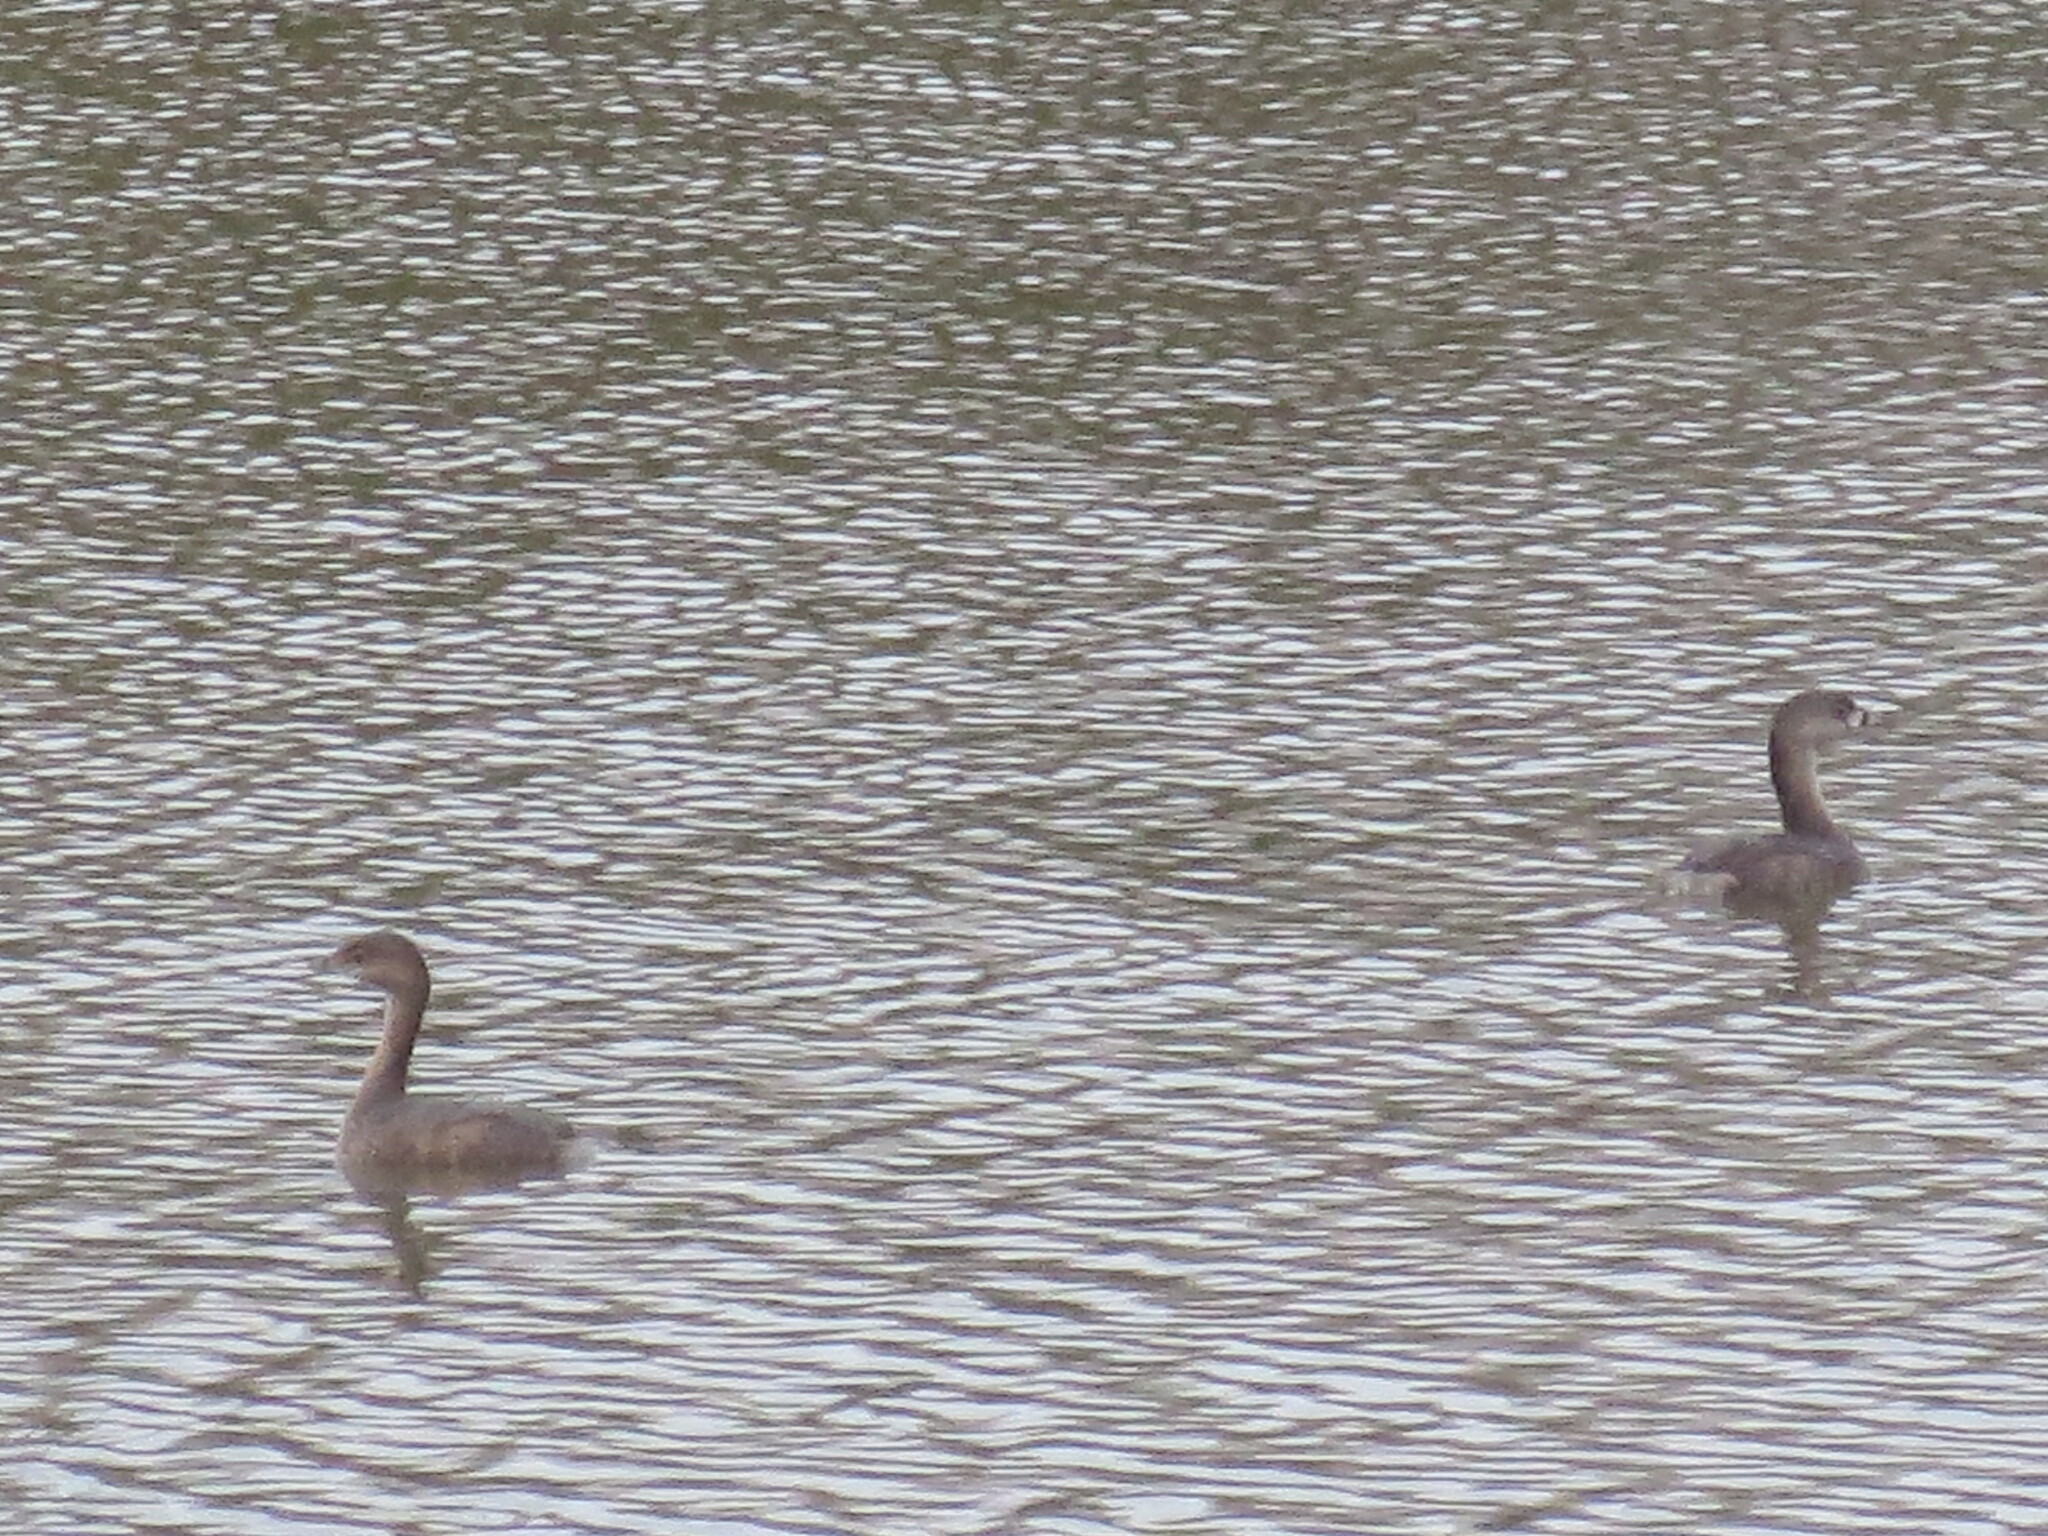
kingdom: Animalia
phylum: Chordata
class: Aves
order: Podicipediformes
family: Podicipedidae
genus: Podilymbus
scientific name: Podilymbus podiceps
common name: Pied-billed grebe
